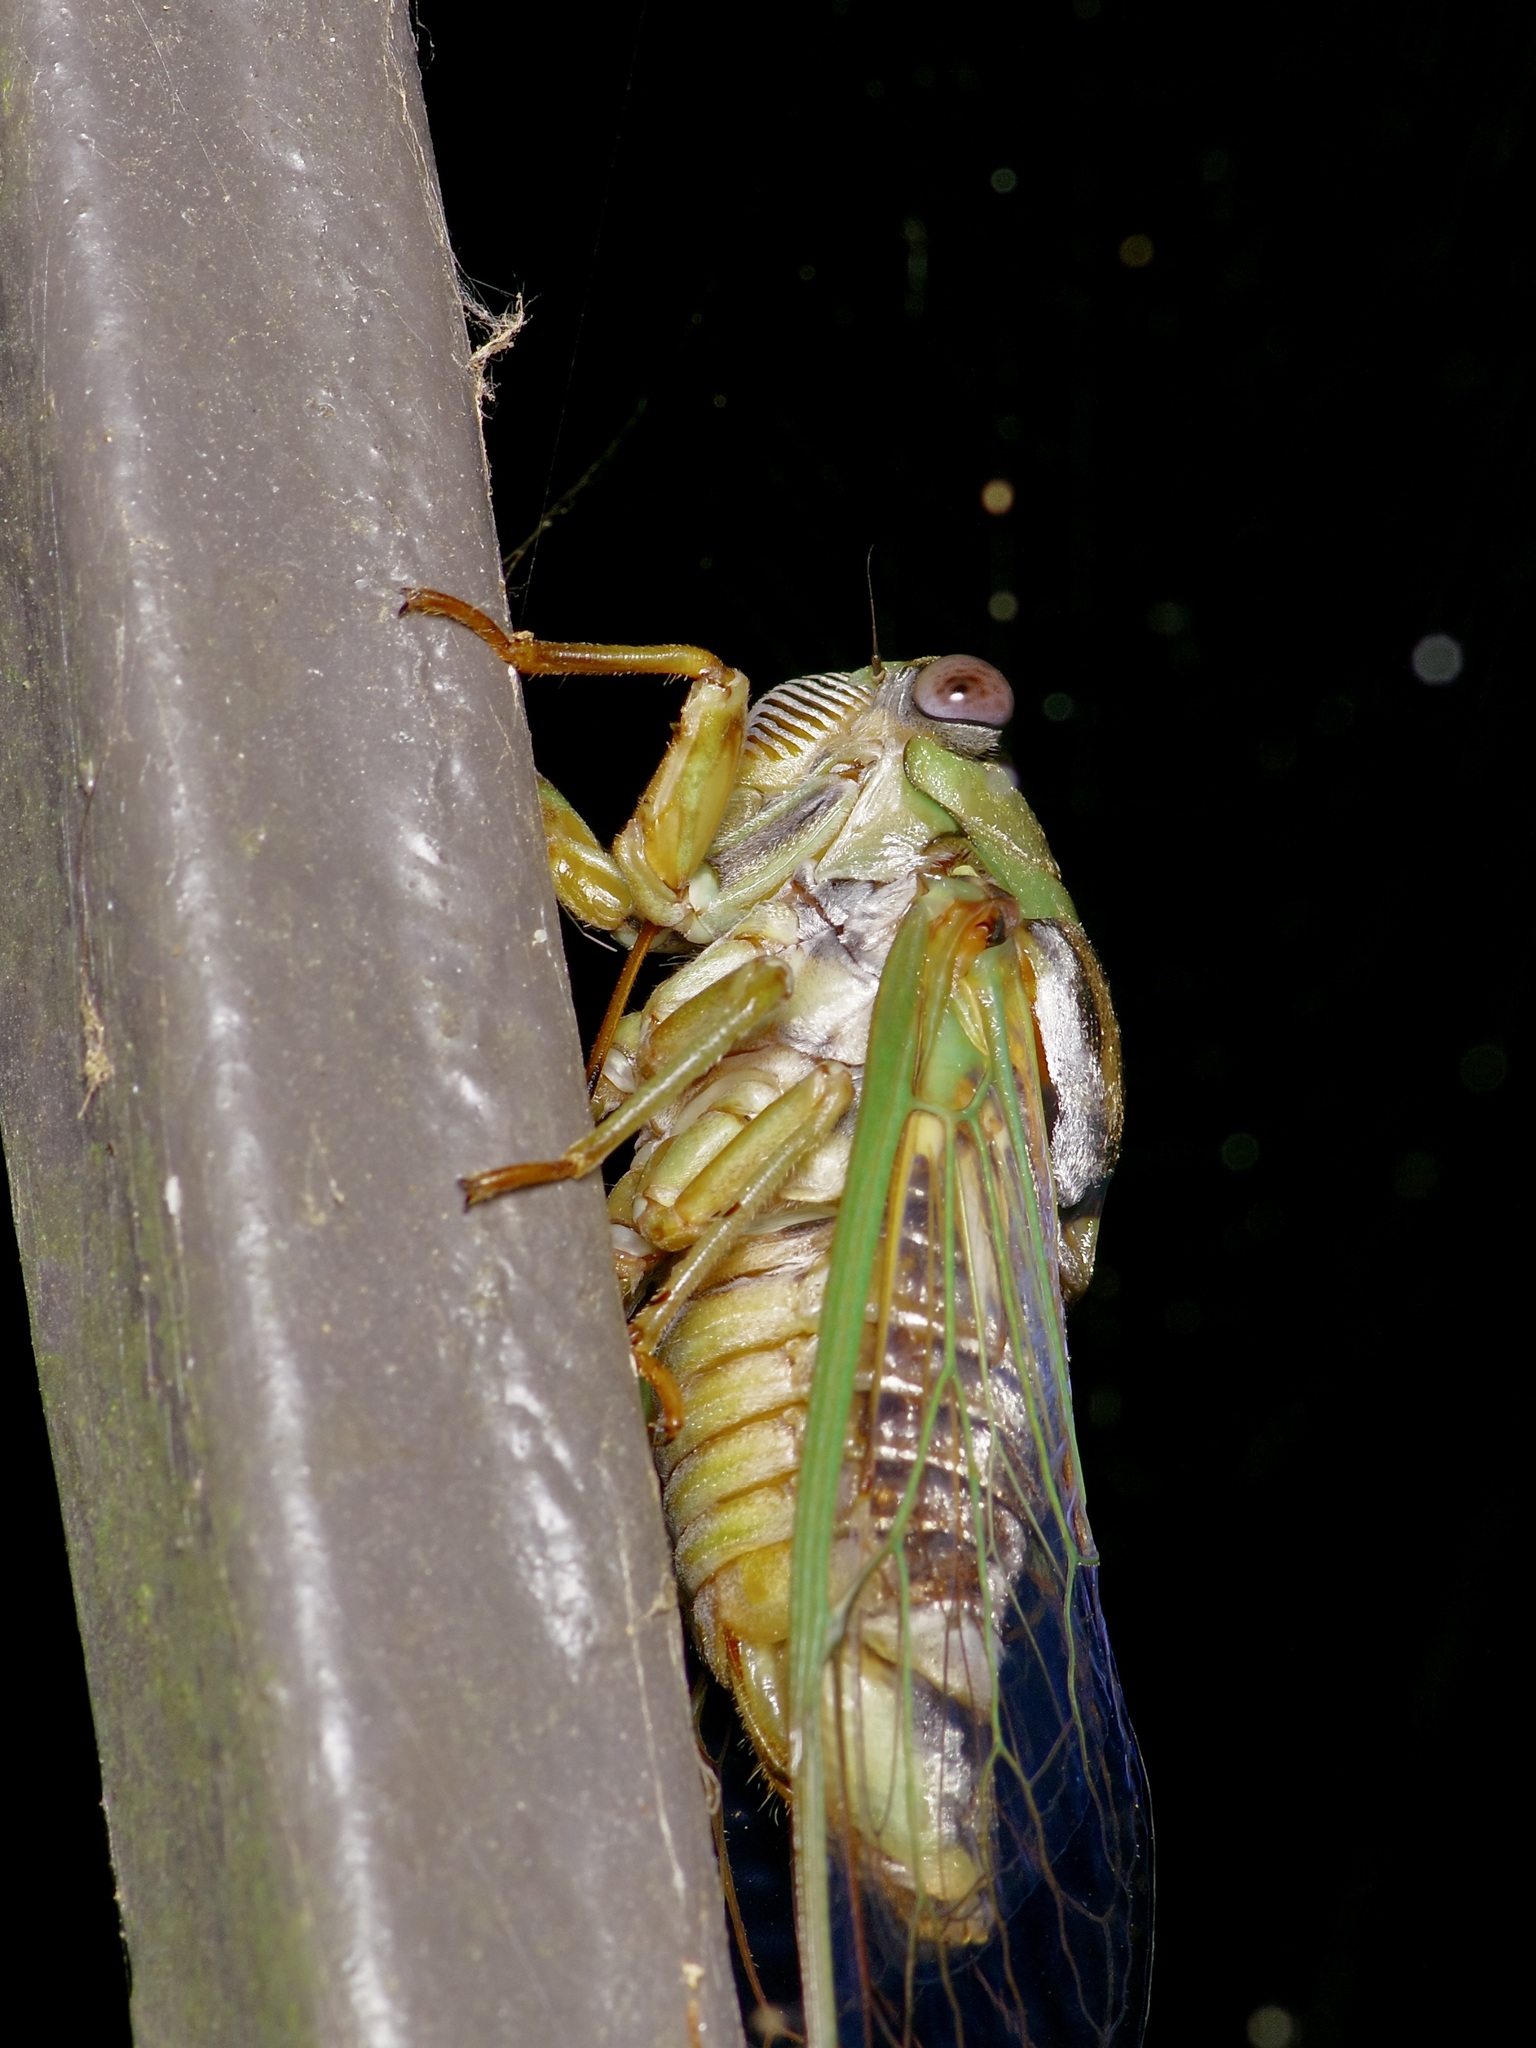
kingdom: Animalia
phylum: Arthropoda
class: Insecta
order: Hemiptera
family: Cicadidae
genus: Megatibicen
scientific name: Megatibicen resh
